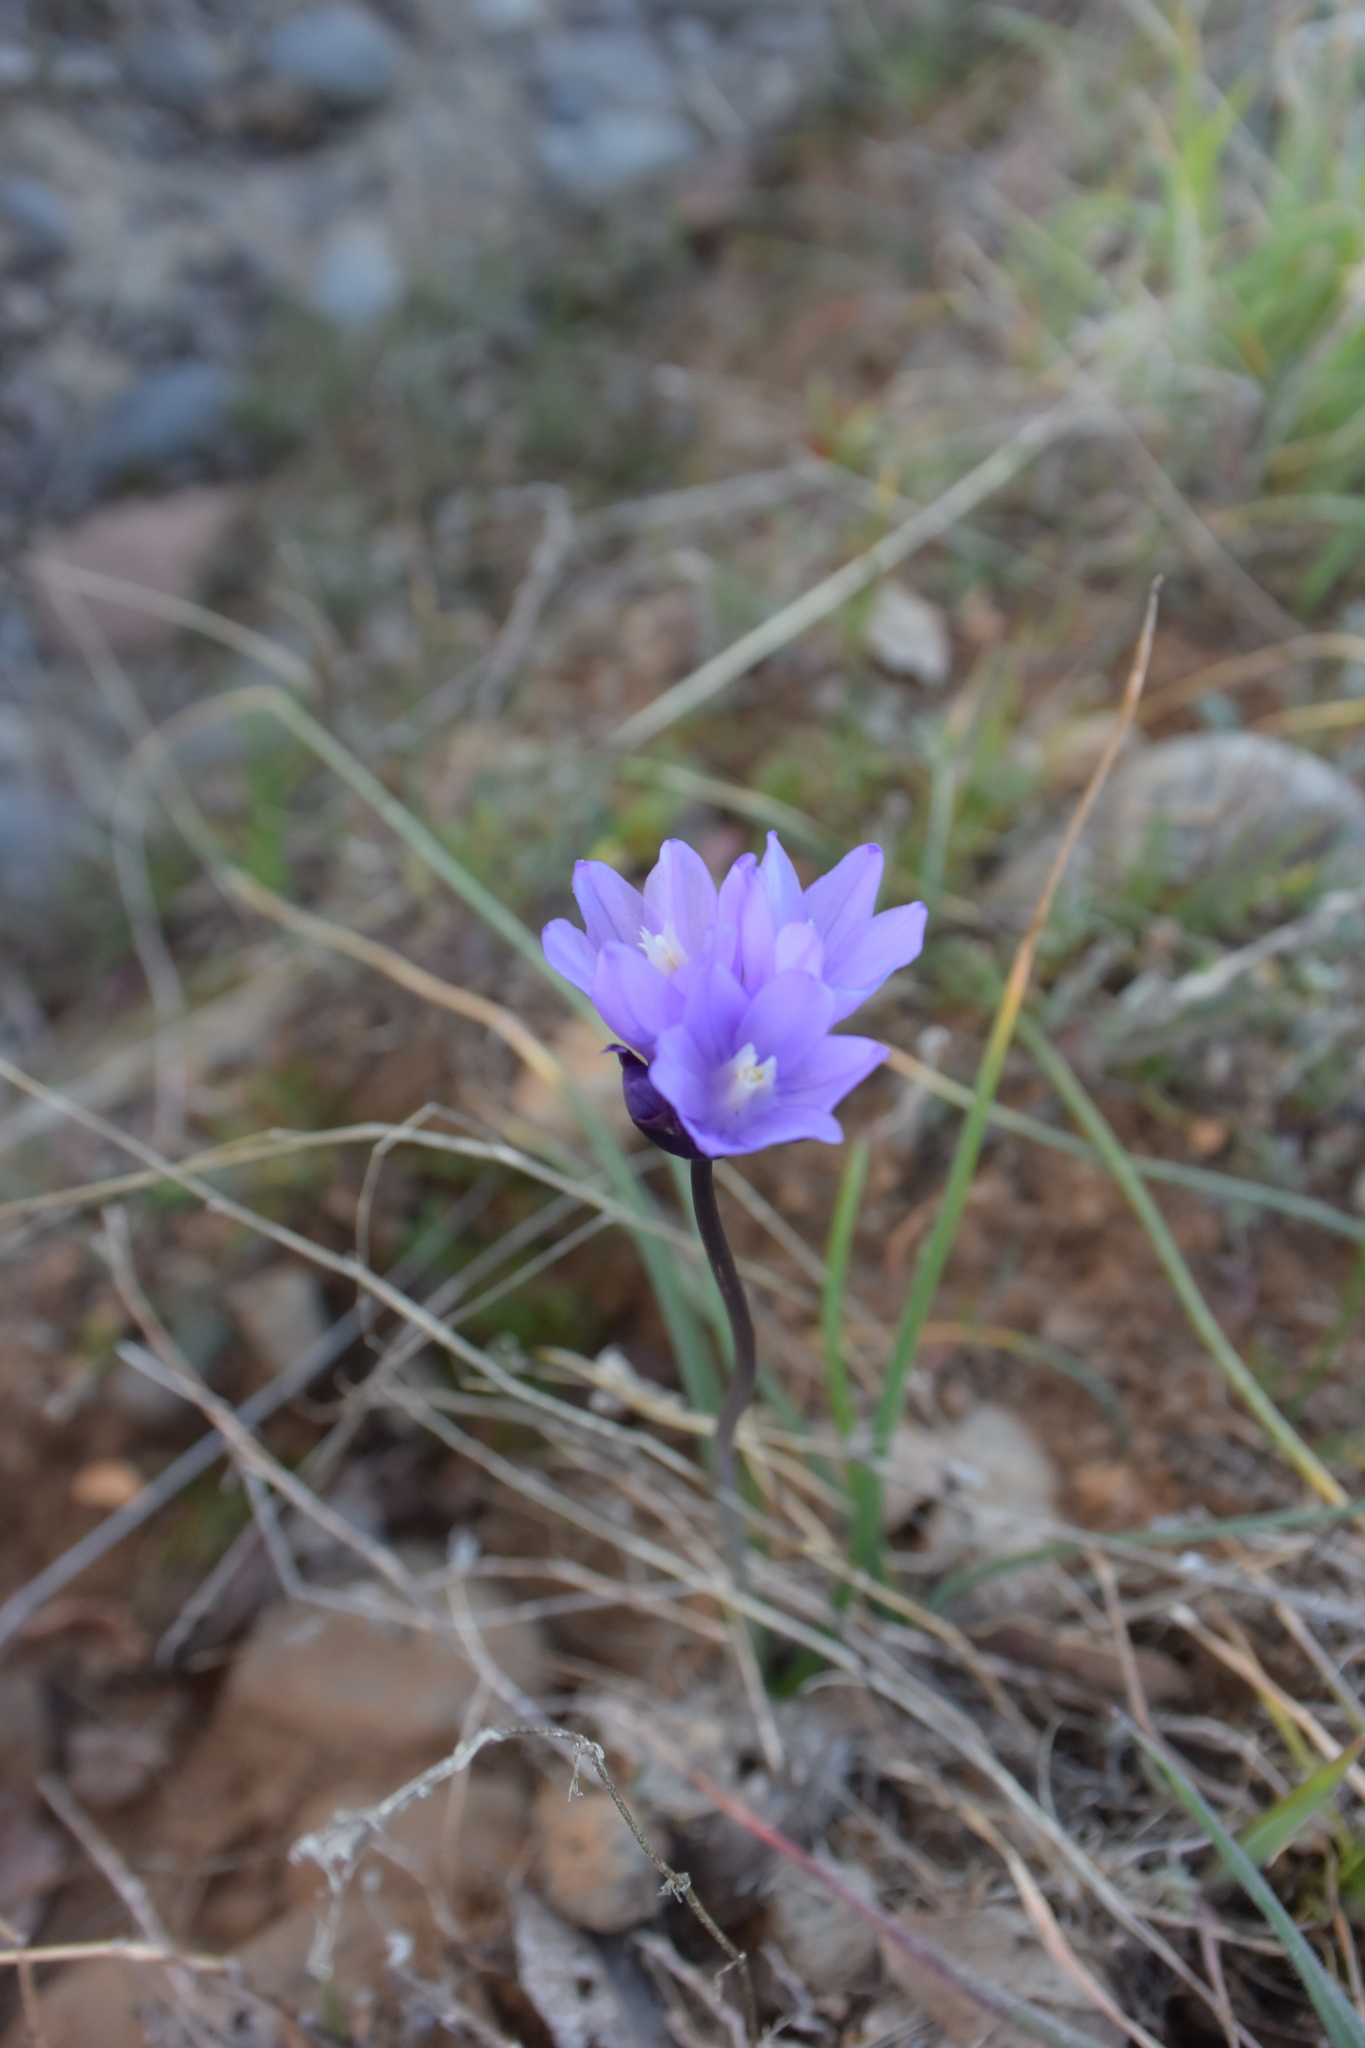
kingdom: Plantae
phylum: Tracheophyta
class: Liliopsida
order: Asparagales
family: Asparagaceae
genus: Dipterostemon
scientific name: Dipterostemon capitatus
